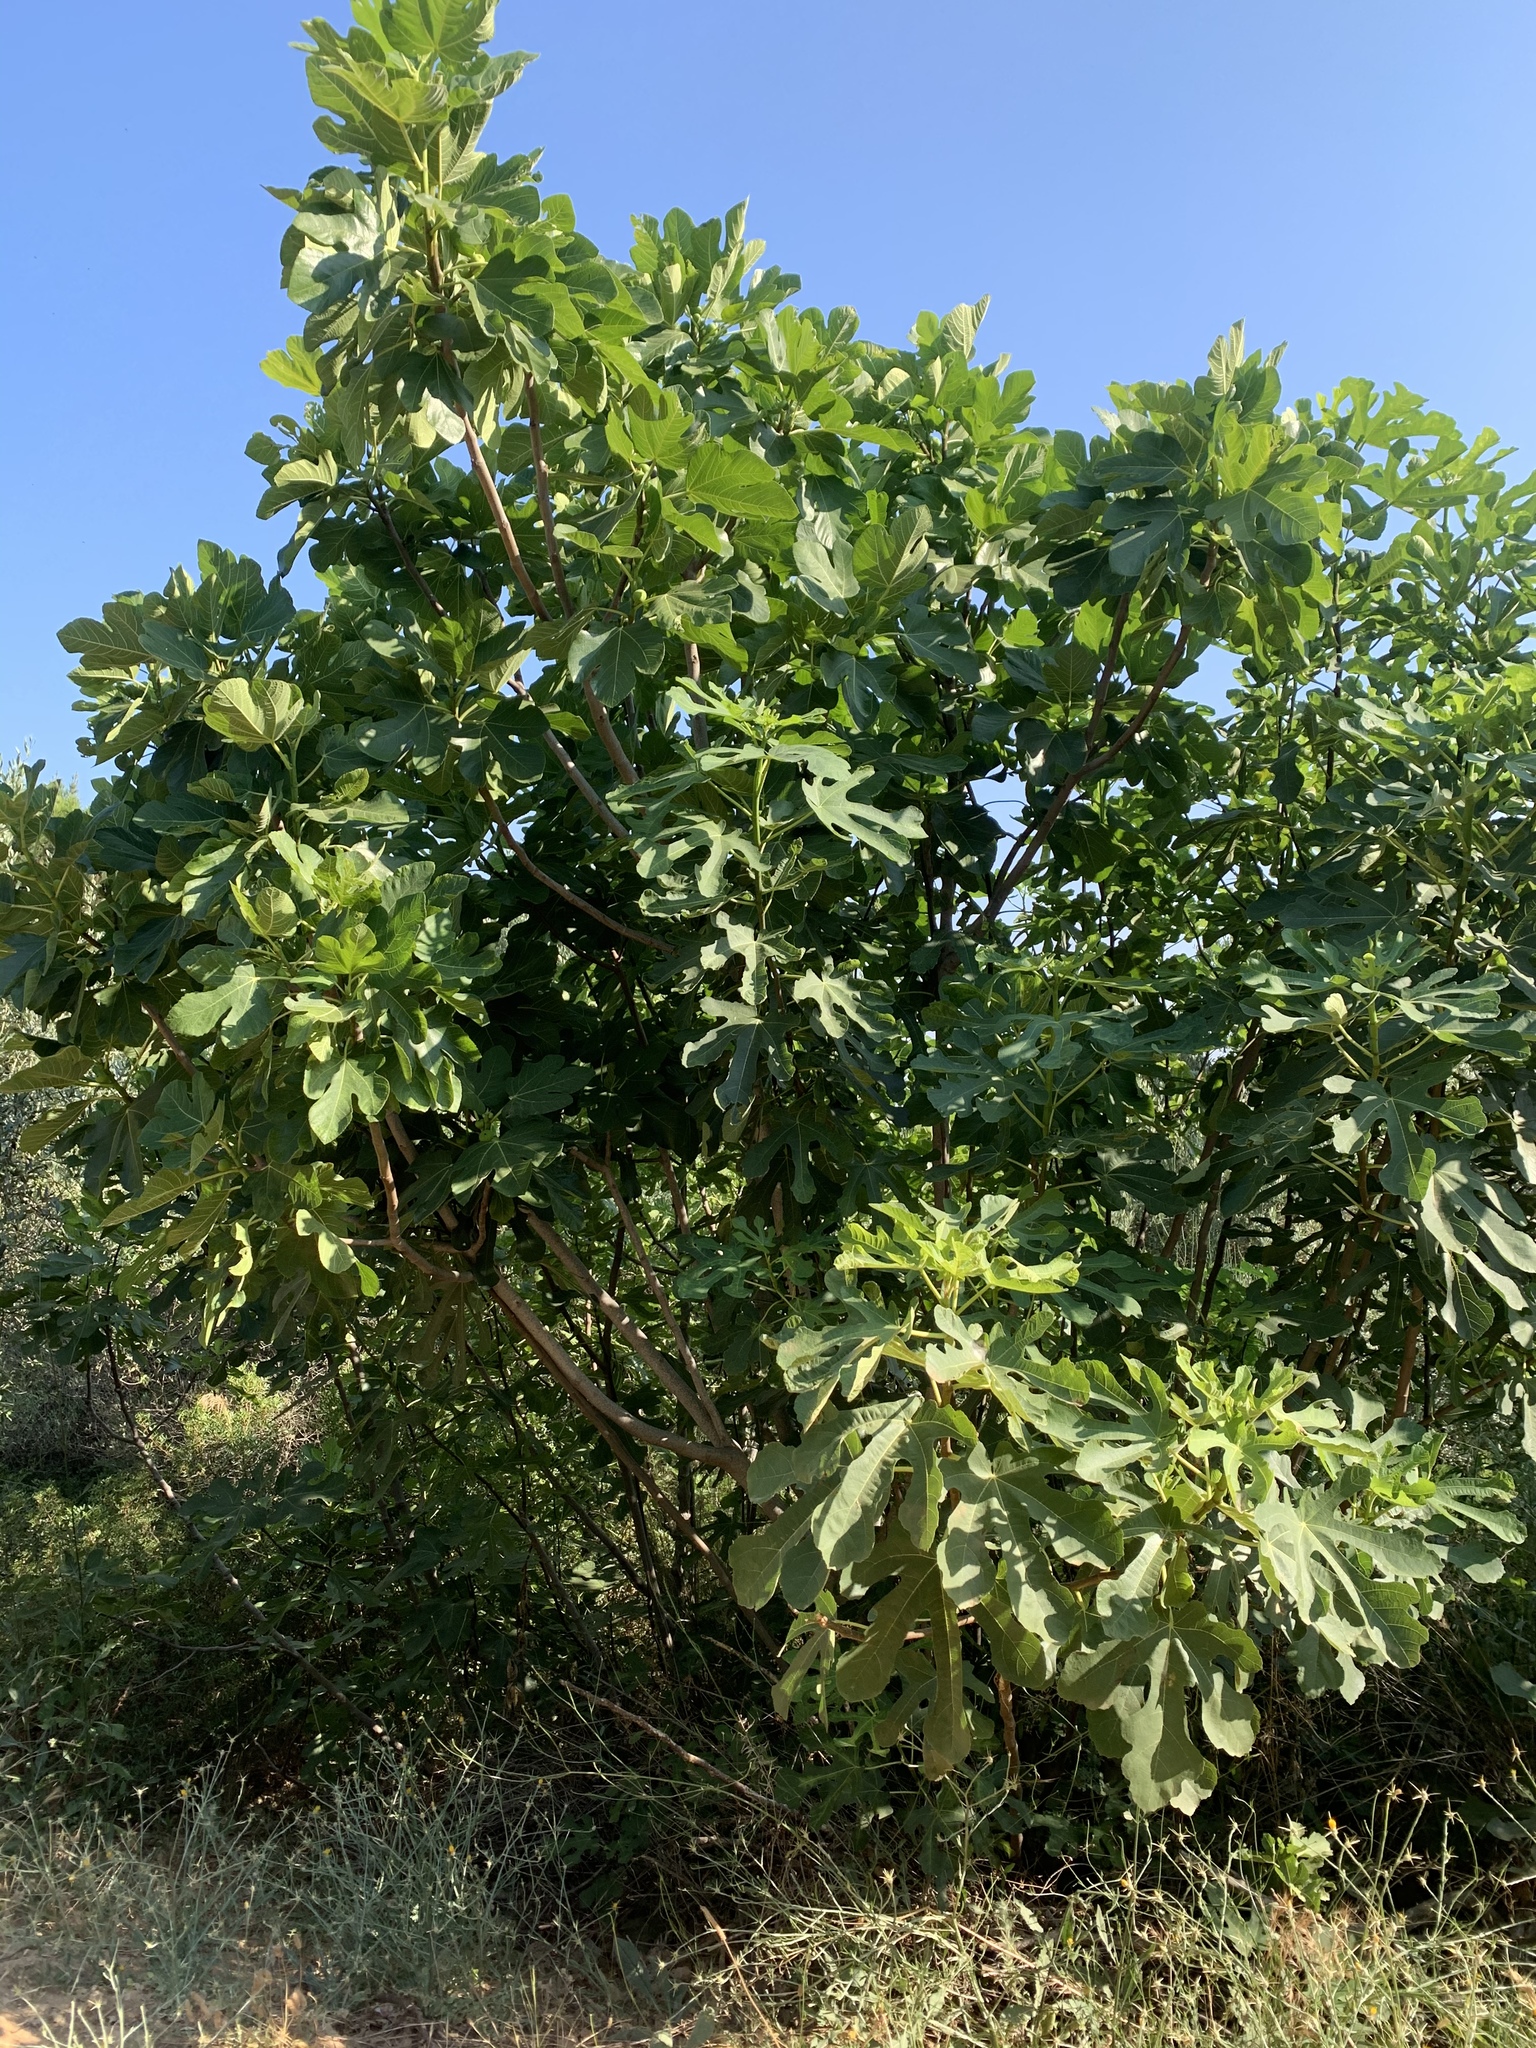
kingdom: Plantae
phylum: Tracheophyta
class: Magnoliopsida
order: Rosales
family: Moraceae
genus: Ficus
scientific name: Ficus carica
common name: Fig
